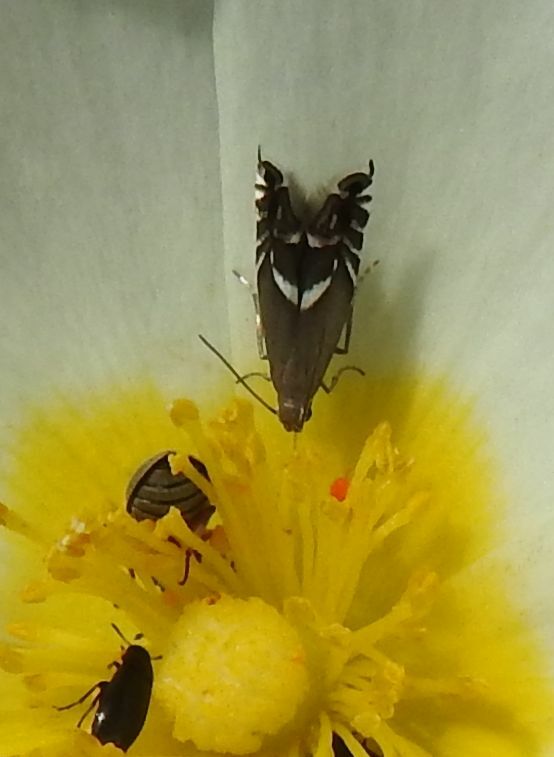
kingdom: Animalia
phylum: Arthropoda
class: Insecta
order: Lepidoptera
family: Glyphipterigidae
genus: Glyphipterix
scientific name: Glyphipterix forsterella
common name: Sedge fanner
